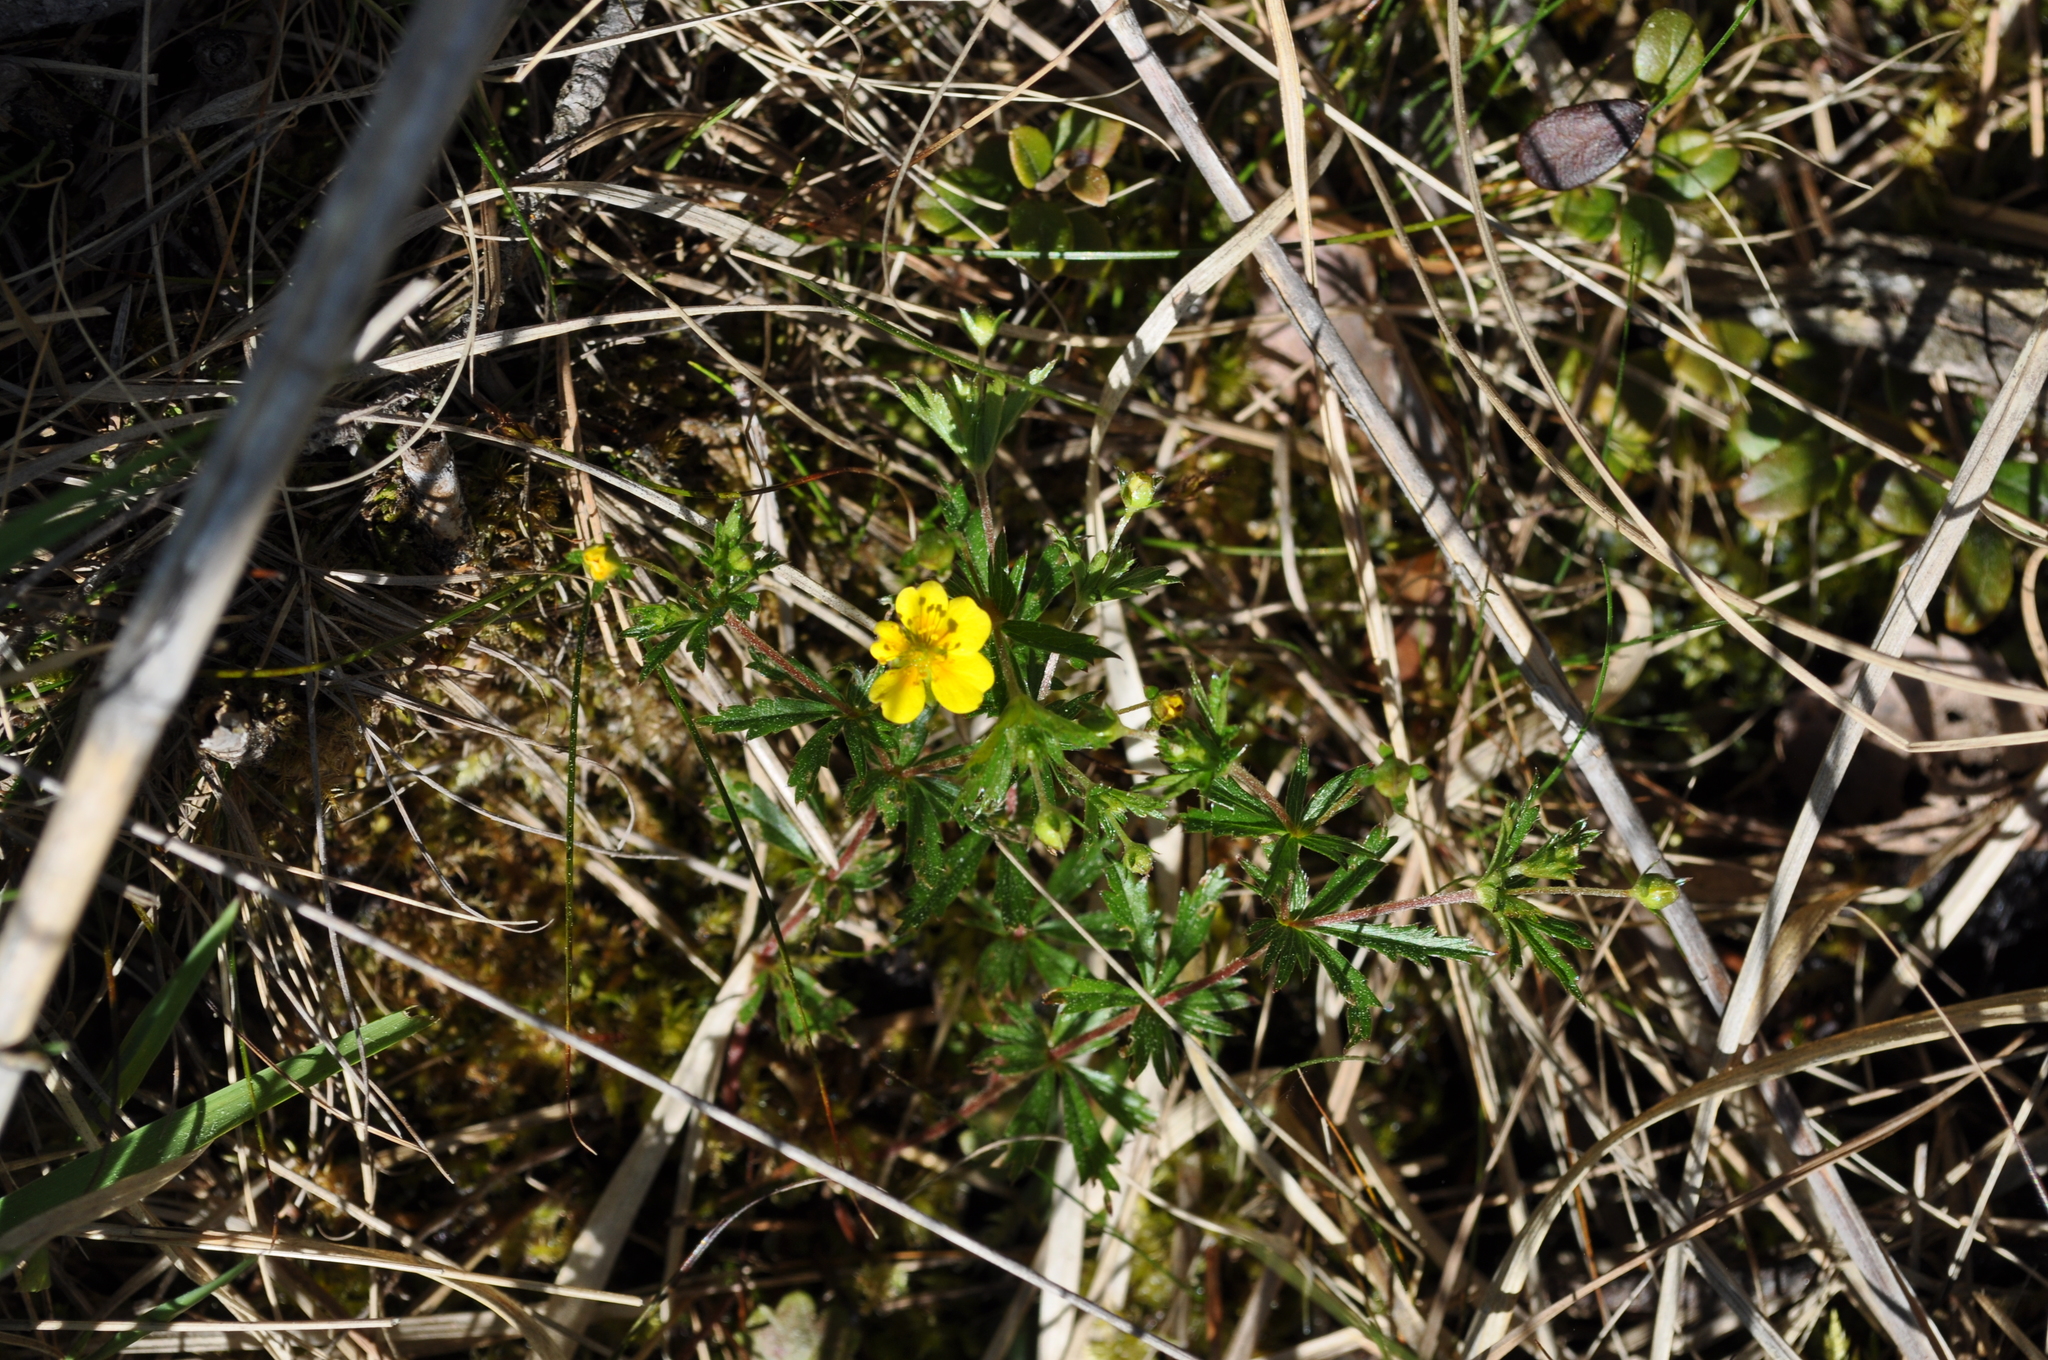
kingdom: Plantae
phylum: Tracheophyta
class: Magnoliopsida
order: Rosales
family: Rosaceae
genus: Potentilla
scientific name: Potentilla erecta
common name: Tormentil
